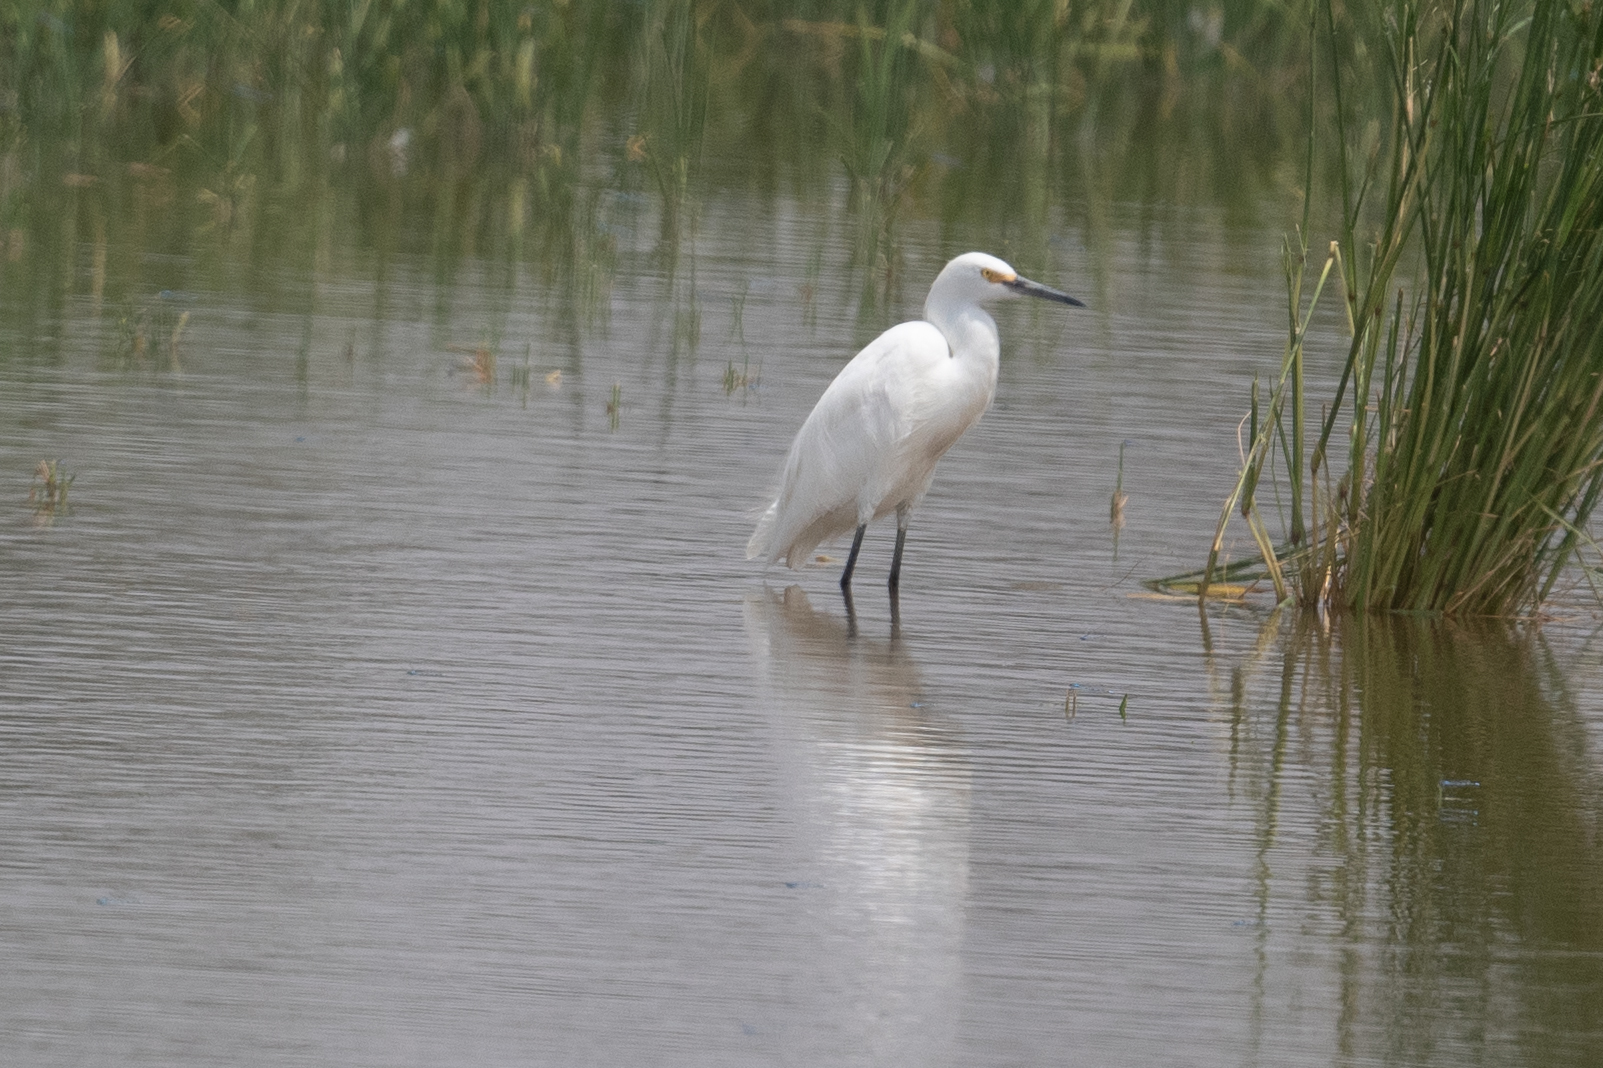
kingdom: Animalia
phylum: Chordata
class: Aves
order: Pelecaniformes
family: Ardeidae
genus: Egretta
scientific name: Egretta thula
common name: Snowy egret
